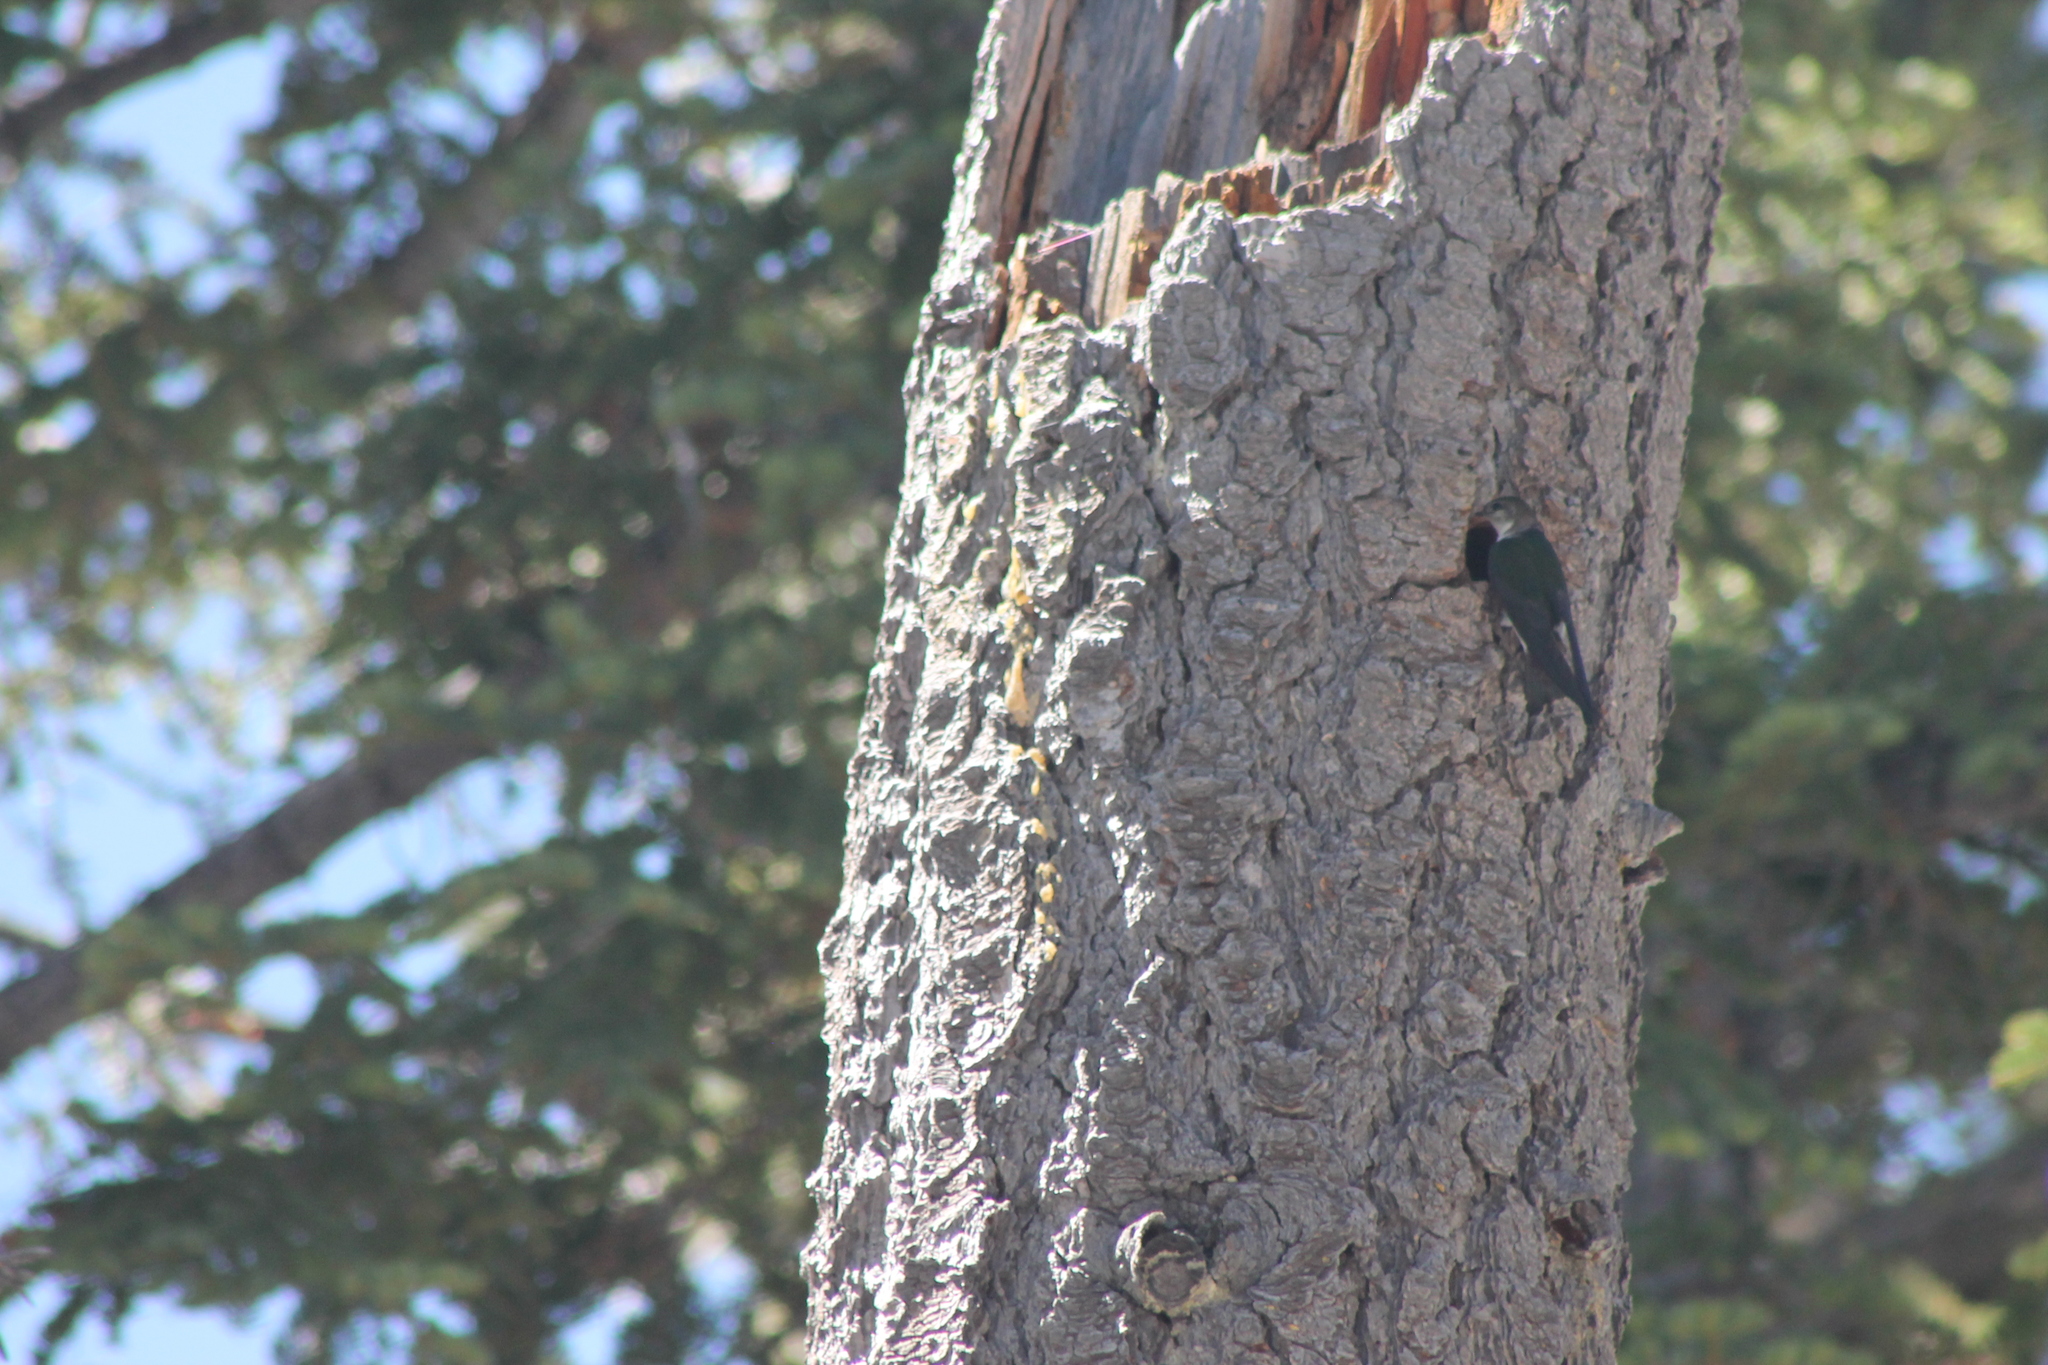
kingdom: Animalia
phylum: Chordata
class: Aves
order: Passeriformes
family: Hirundinidae
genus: Tachycineta
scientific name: Tachycineta thalassina
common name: Violet-green swallow
